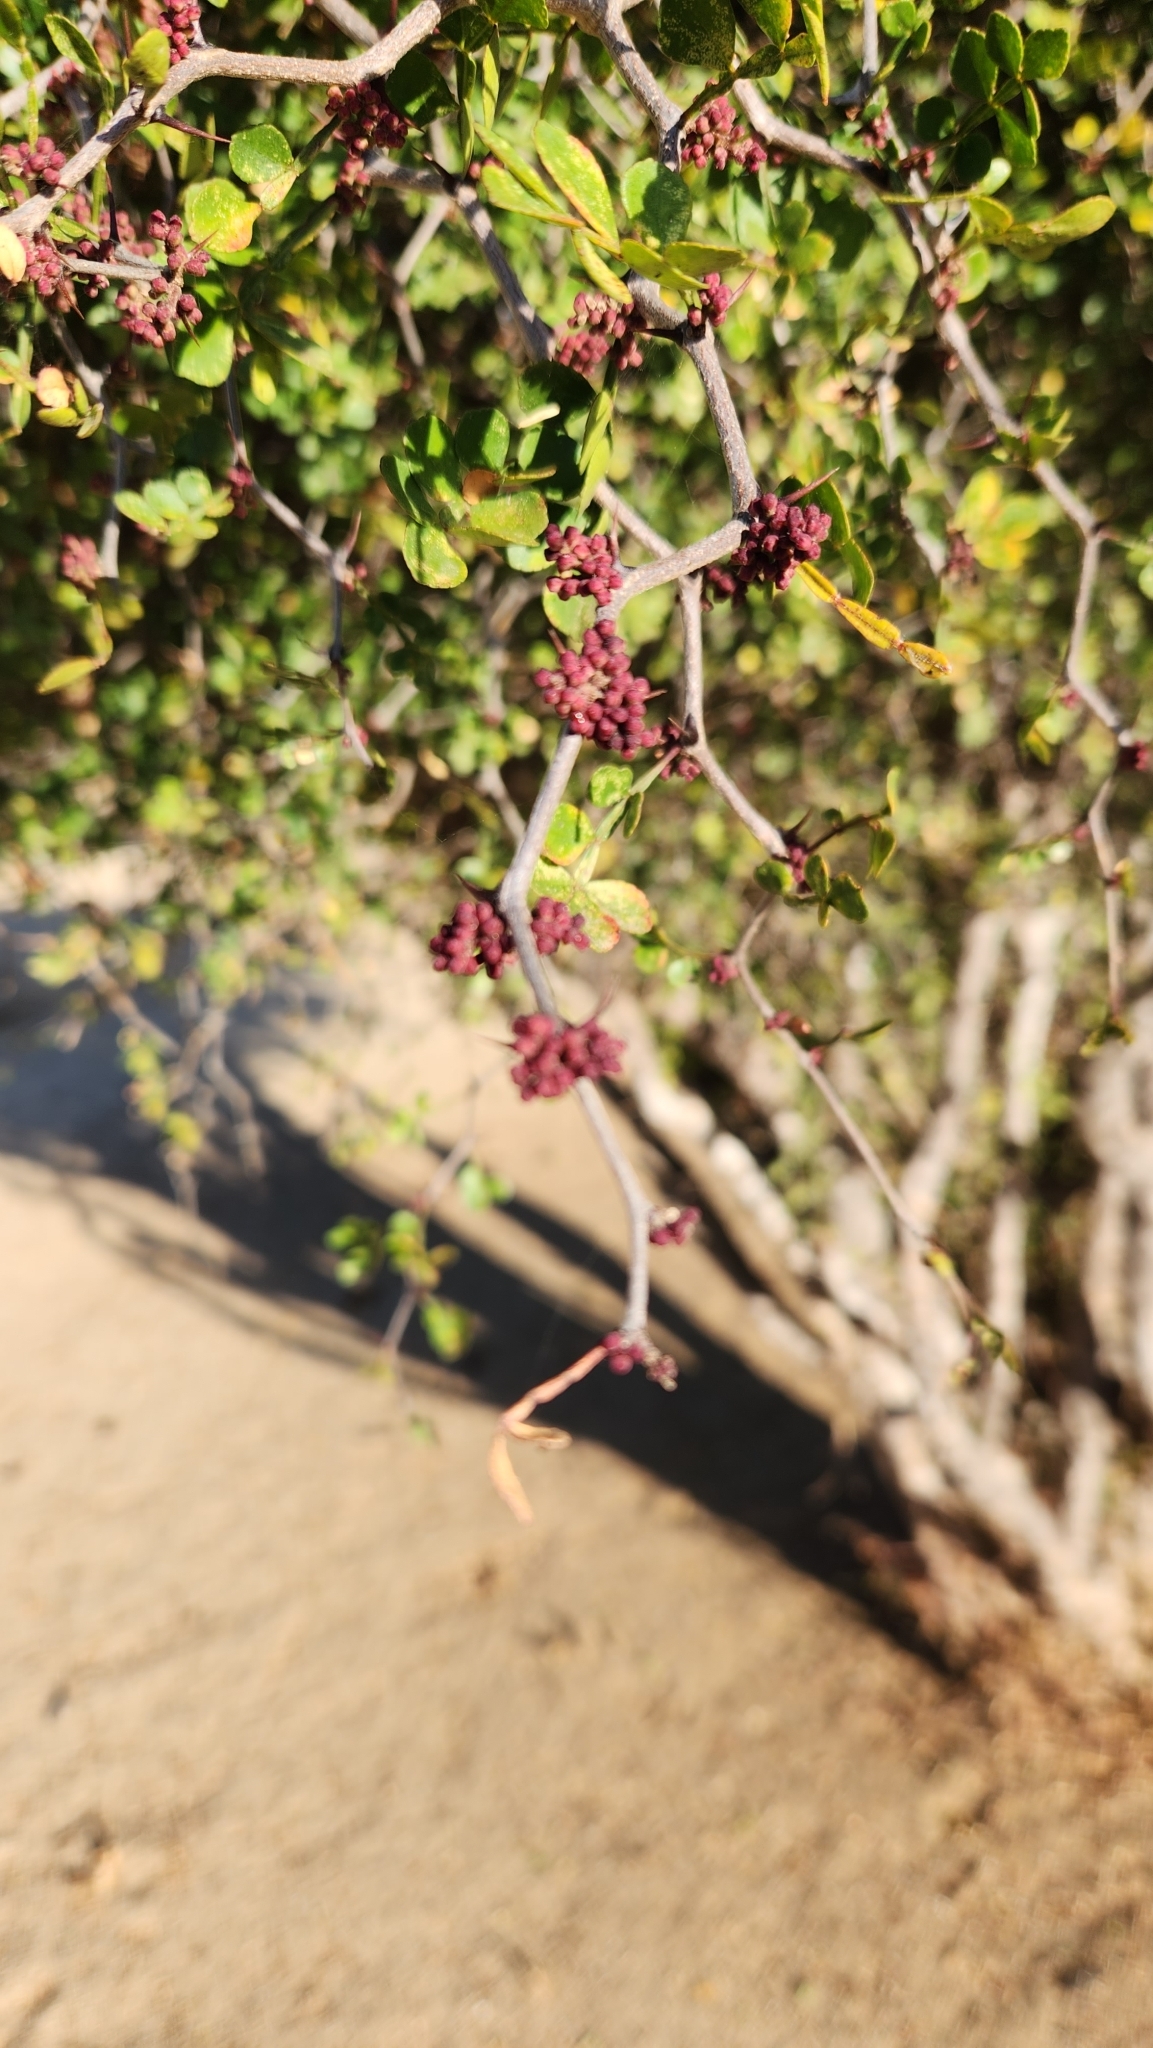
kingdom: Plantae
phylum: Tracheophyta
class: Magnoliopsida
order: Sapindales
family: Rutaceae
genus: Zanthoxylum
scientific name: Zanthoxylum fagara
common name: Lime prickly-ash
